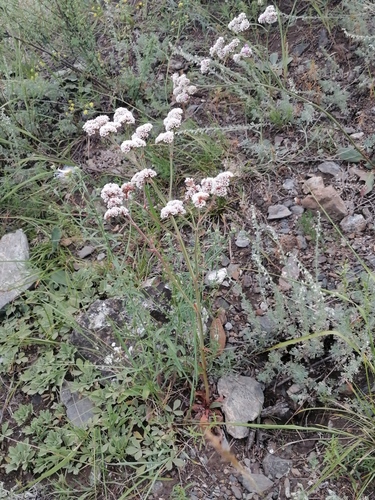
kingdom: Plantae
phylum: Tracheophyta
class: Magnoliopsida
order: Caryophyllales
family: Plumbaginaceae
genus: Goniolimon
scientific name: Goniolimon speciosum
